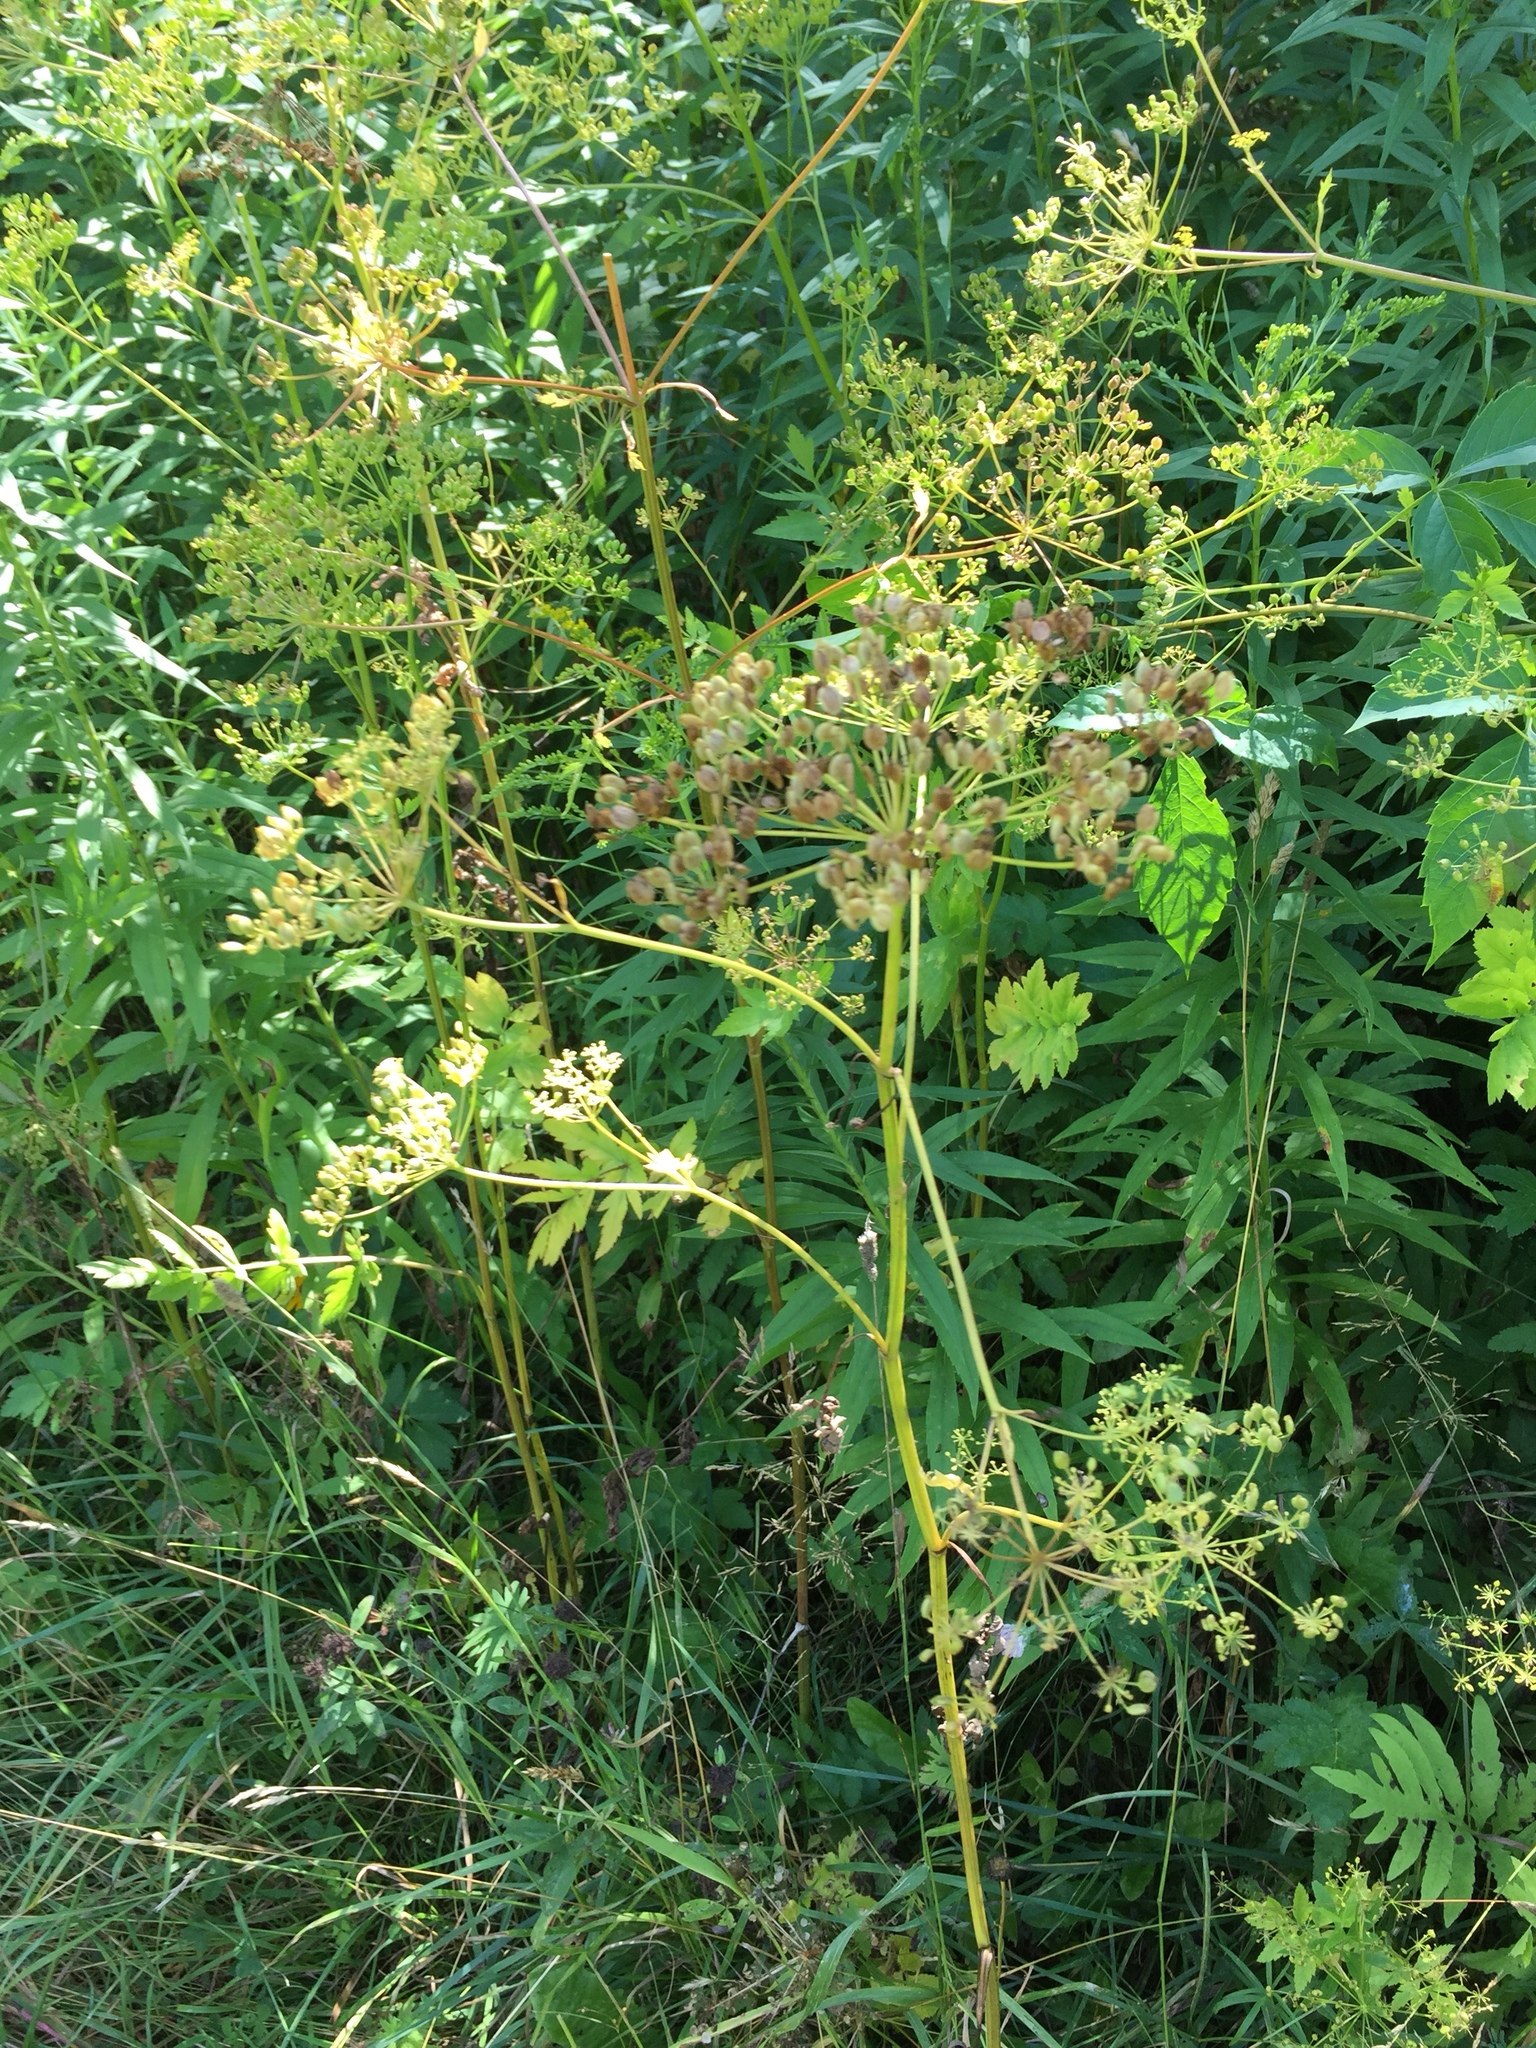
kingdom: Plantae
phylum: Tracheophyta
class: Magnoliopsida
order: Apiales
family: Apiaceae
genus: Pastinaca
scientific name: Pastinaca sativa
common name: Wild parsnip
